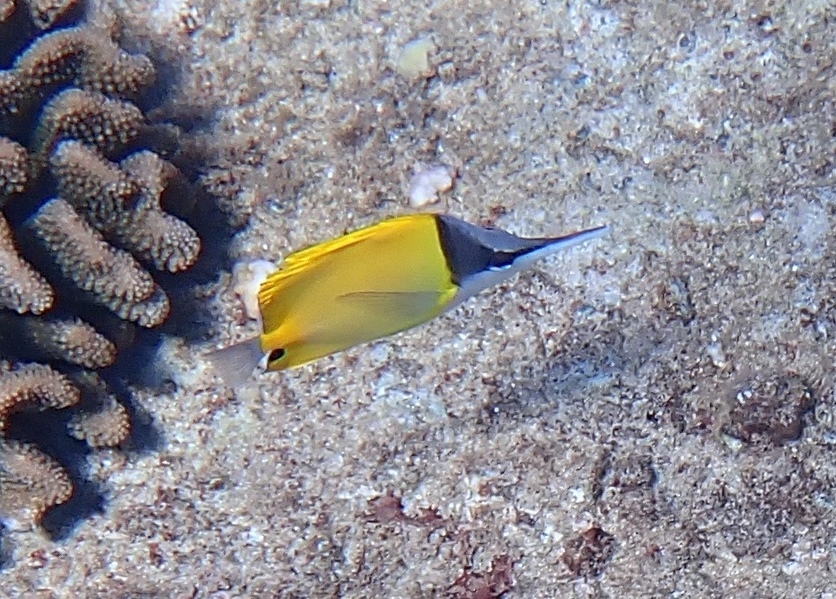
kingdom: Animalia
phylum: Chordata
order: Perciformes
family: Chaetodontidae
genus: Forcipiger
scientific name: Forcipiger flavissimus
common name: Forcepsfish
